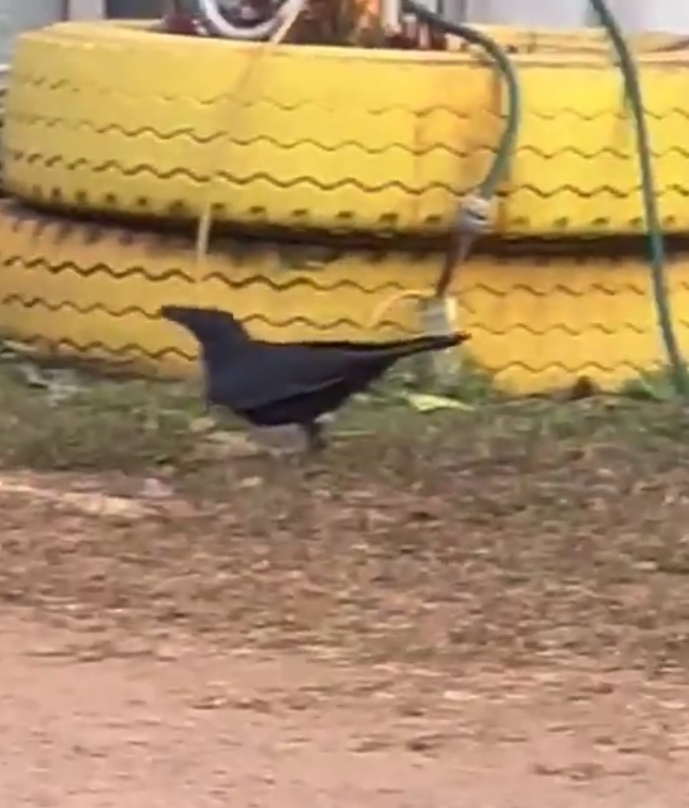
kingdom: Animalia
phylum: Chordata
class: Aves
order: Passeriformes
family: Corvidae
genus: Corvus
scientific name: Corvus orru
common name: Torresian crow
